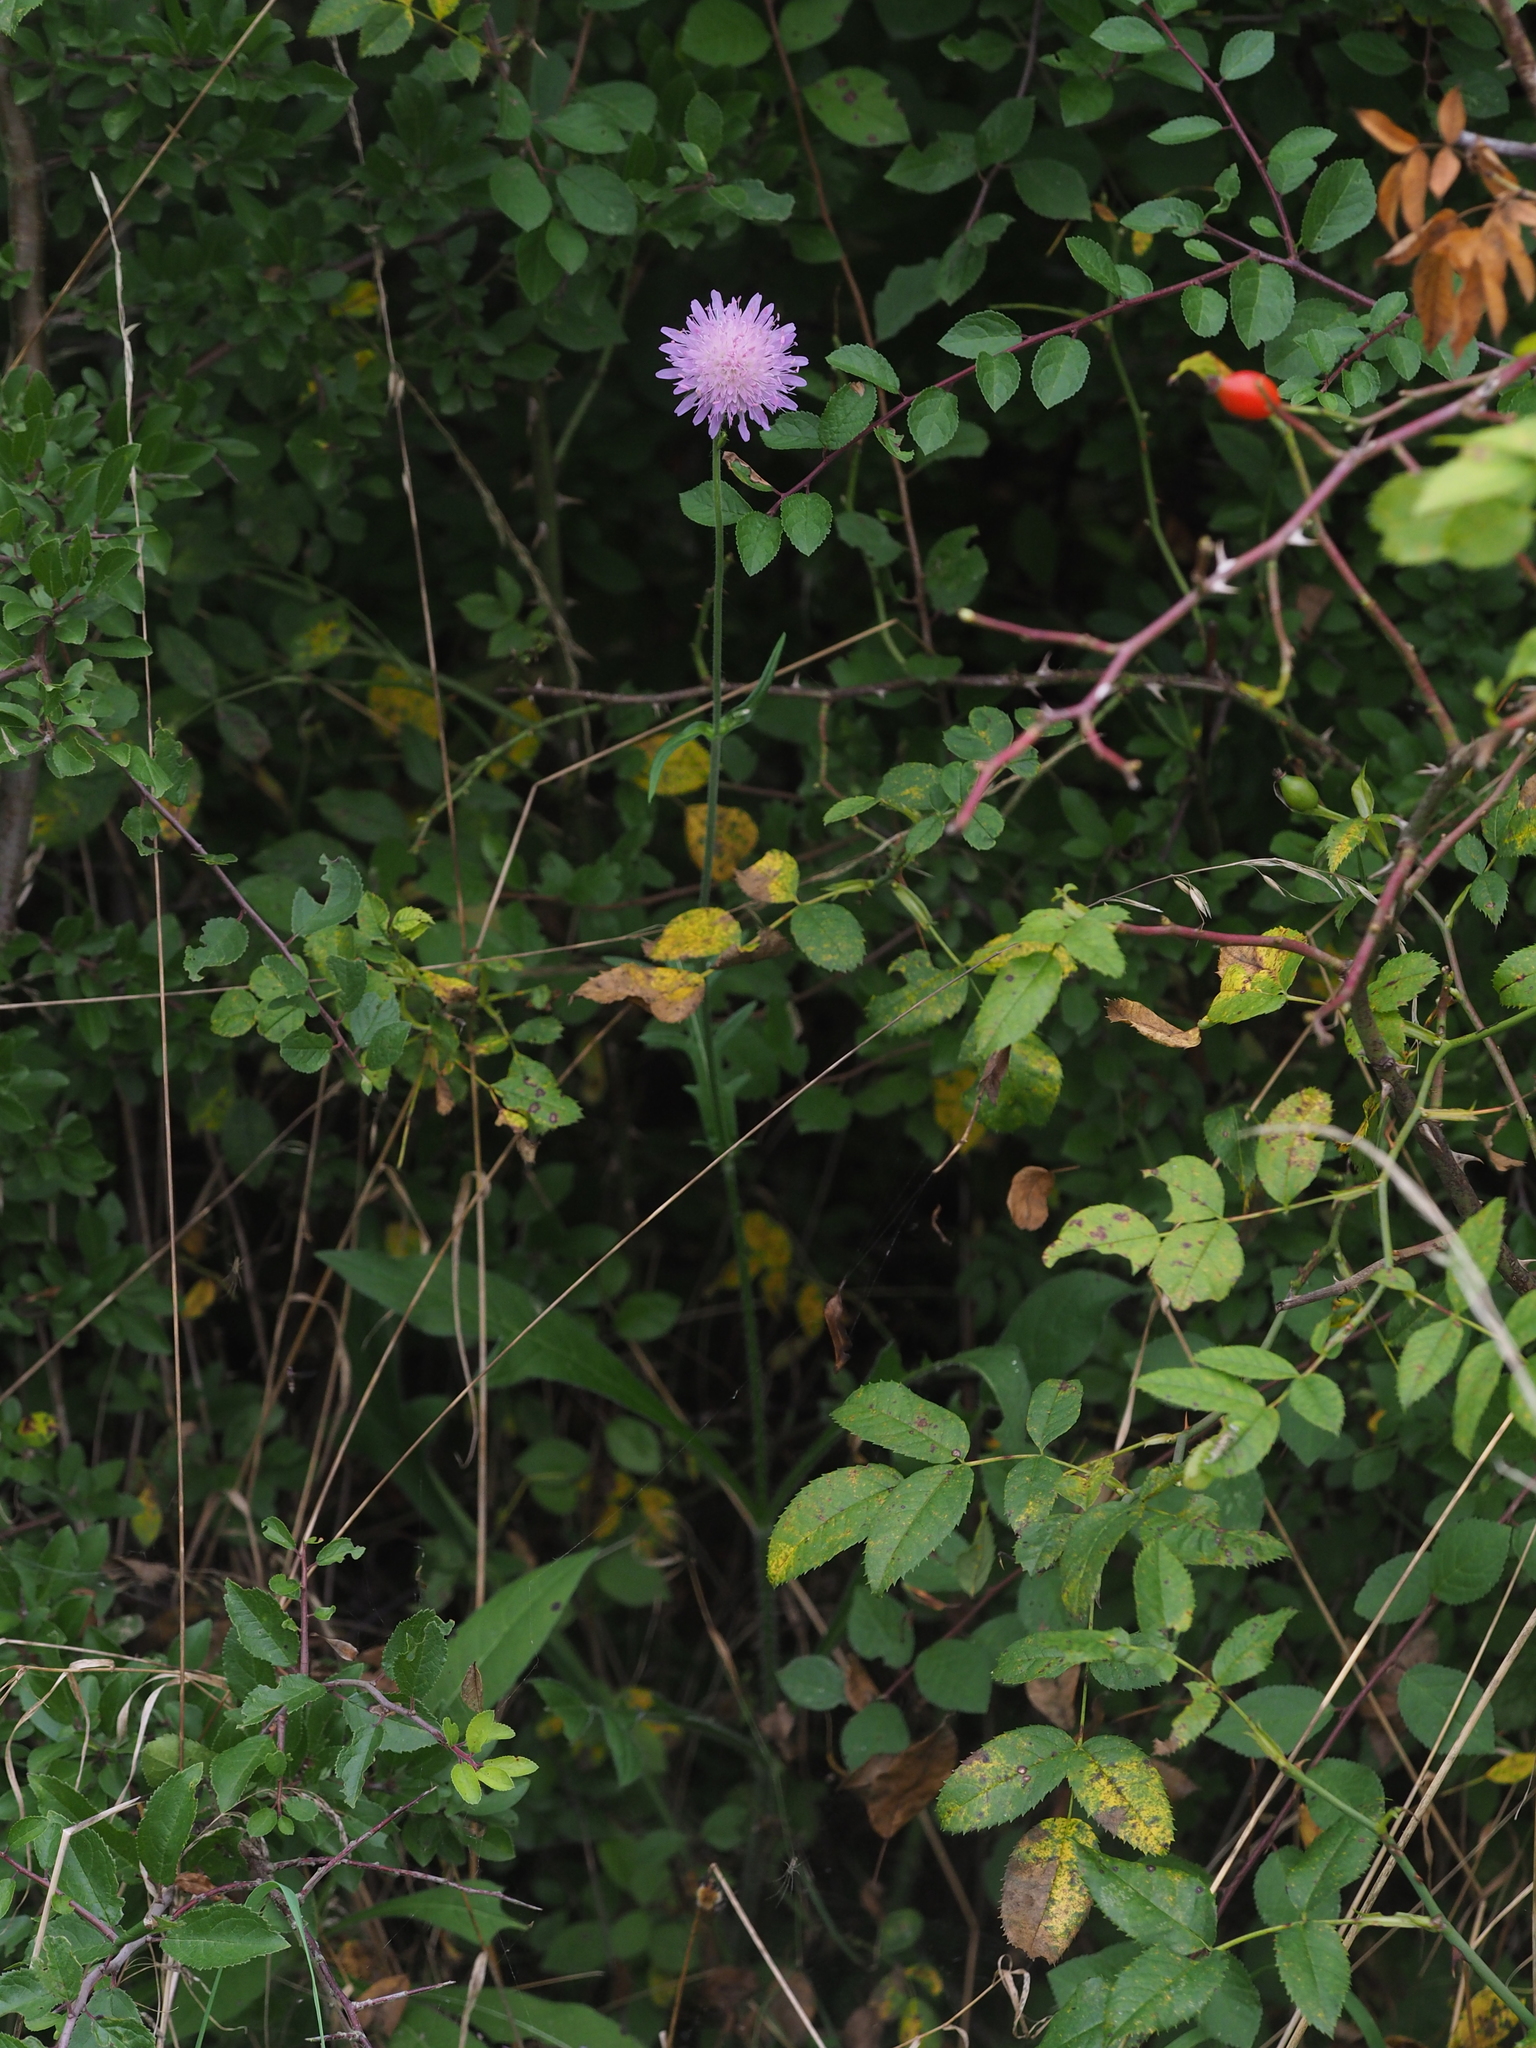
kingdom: Plantae
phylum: Tracheophyta
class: Magnoliopsida
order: Dipsacales
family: Caprifoliaceae
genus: Knautia
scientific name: Knautia arvensis
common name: Field scabiosa
